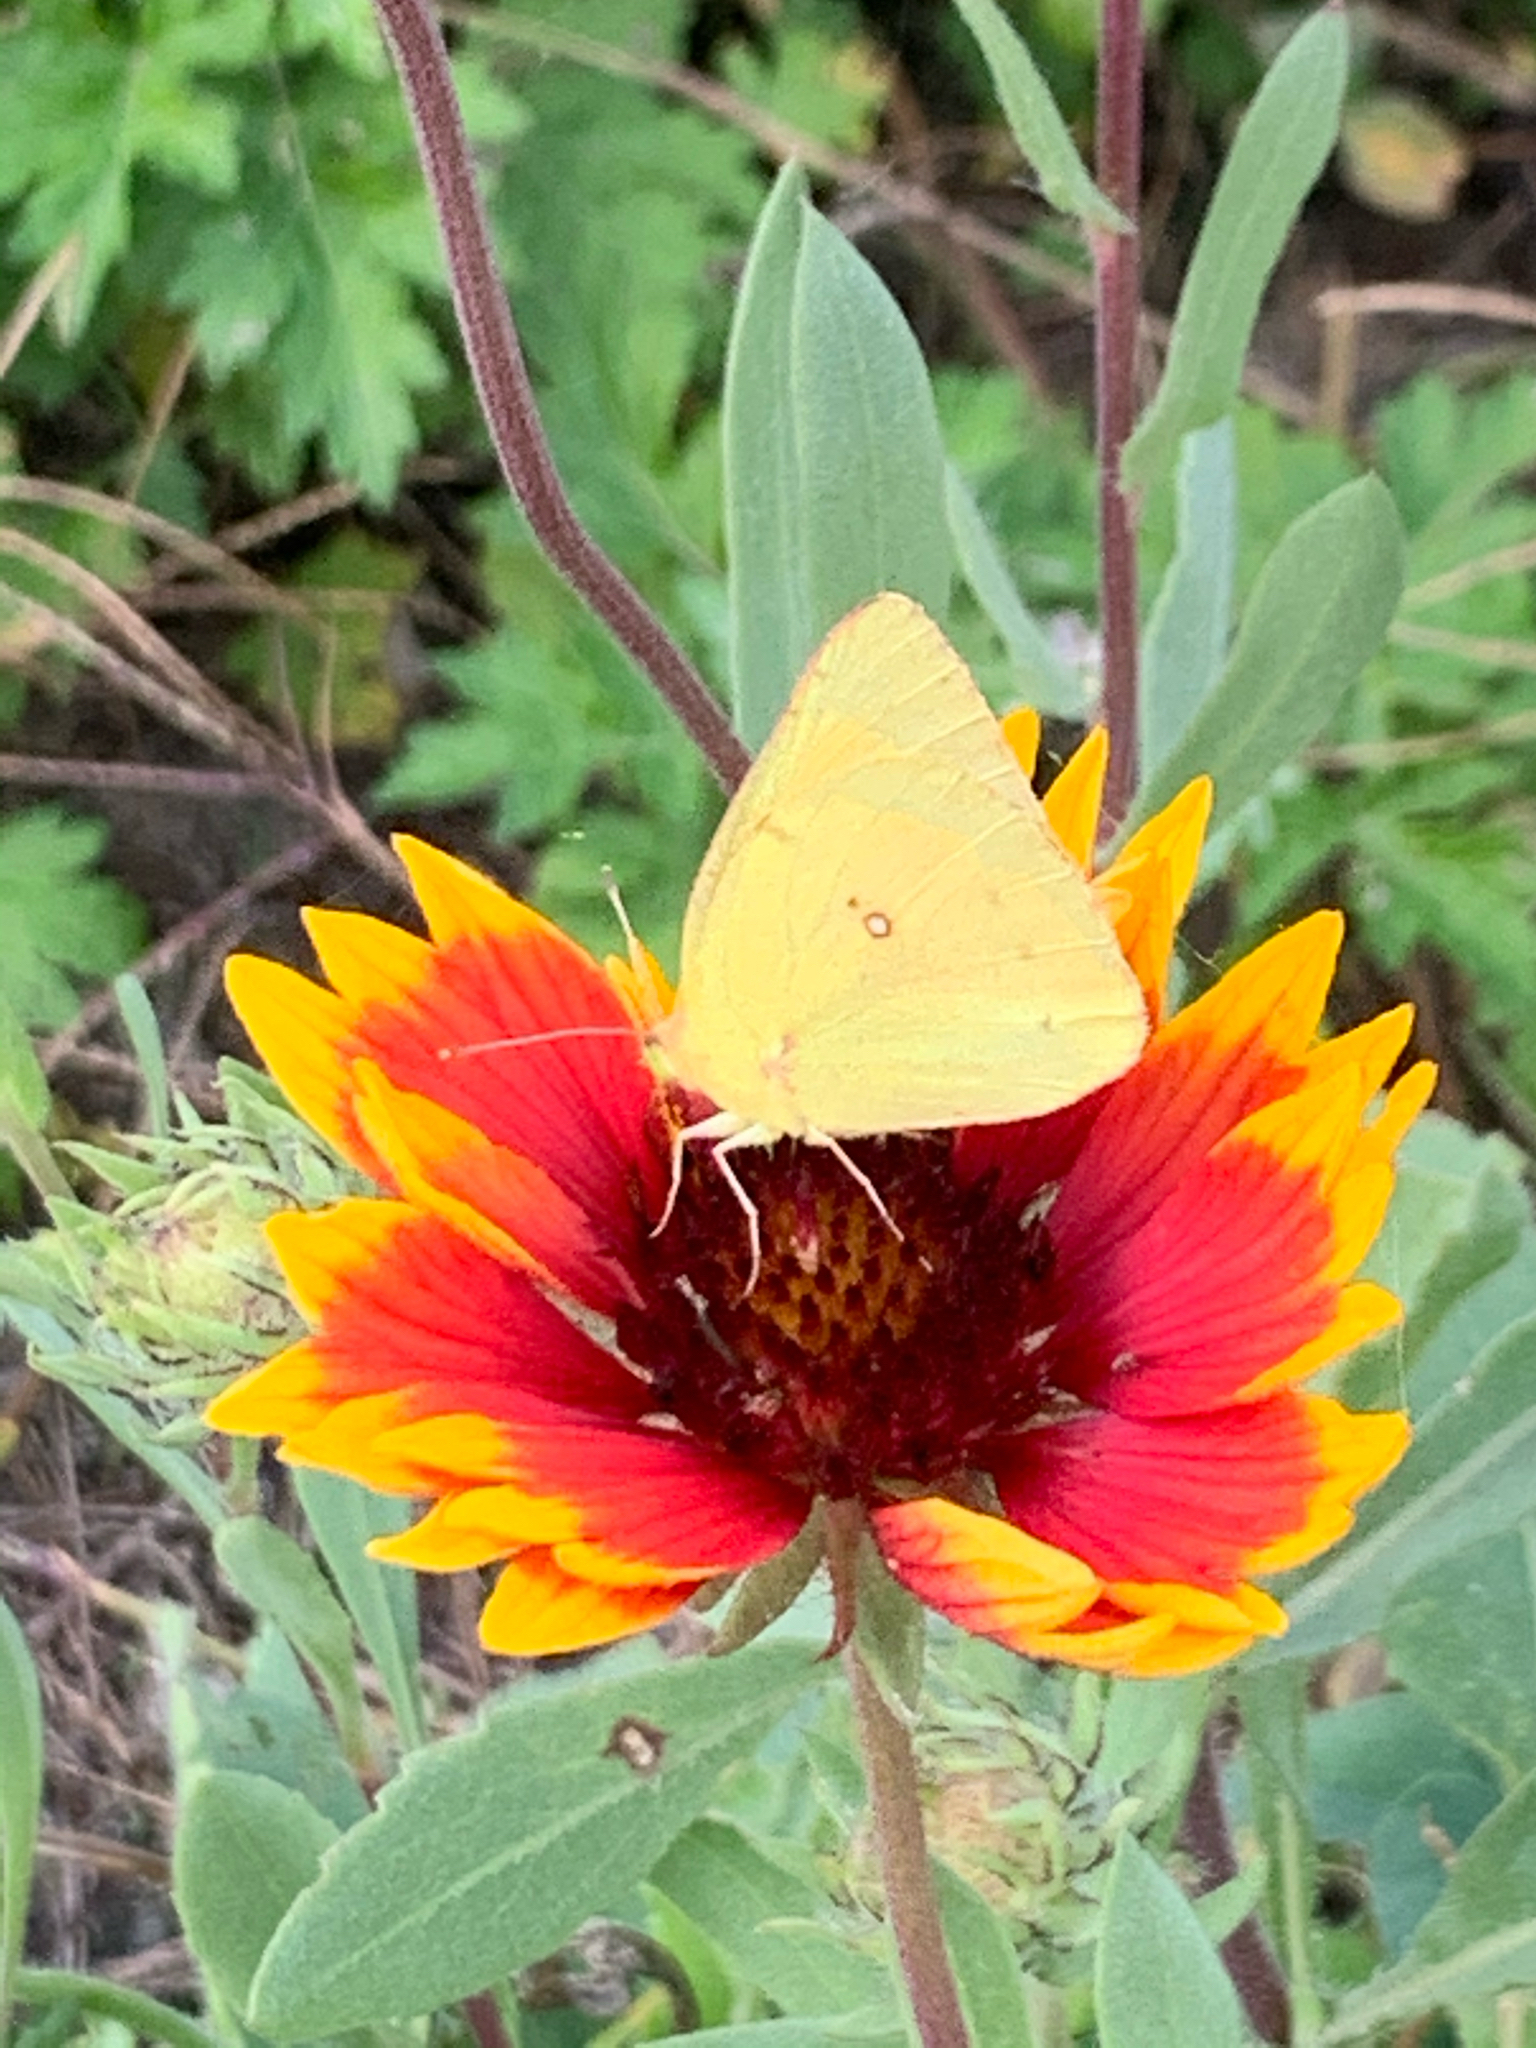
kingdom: Animalia
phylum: Arthropoda
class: Insecta
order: Lepidoptera
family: Pieridae
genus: Colias
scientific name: Colias eurytheme
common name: Alfalfa butterfly
